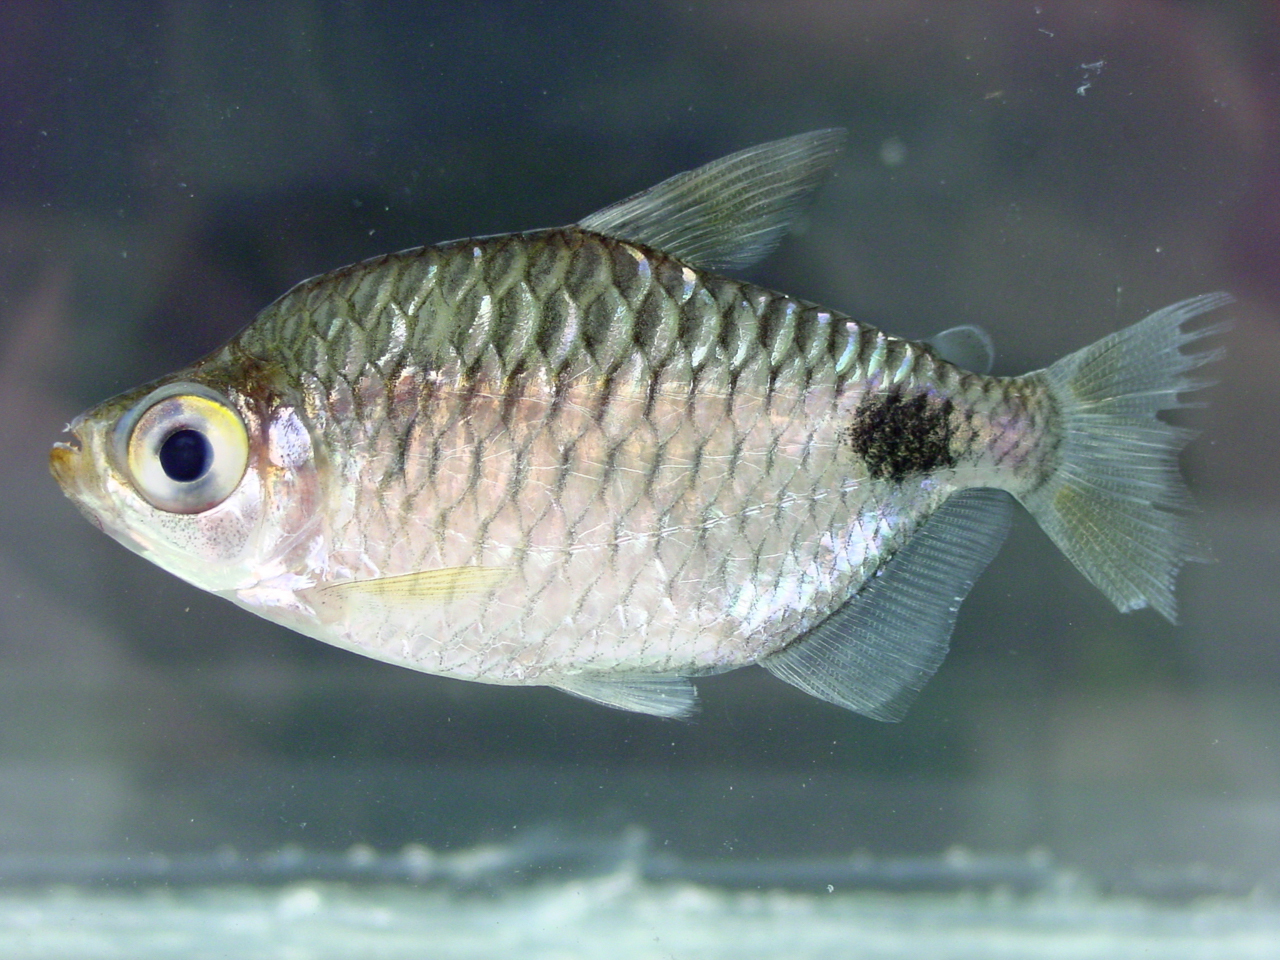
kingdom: Animalia
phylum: Chordata
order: Characiformes
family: Alestidae
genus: Brachypetersius
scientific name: Brachypetersius altus
